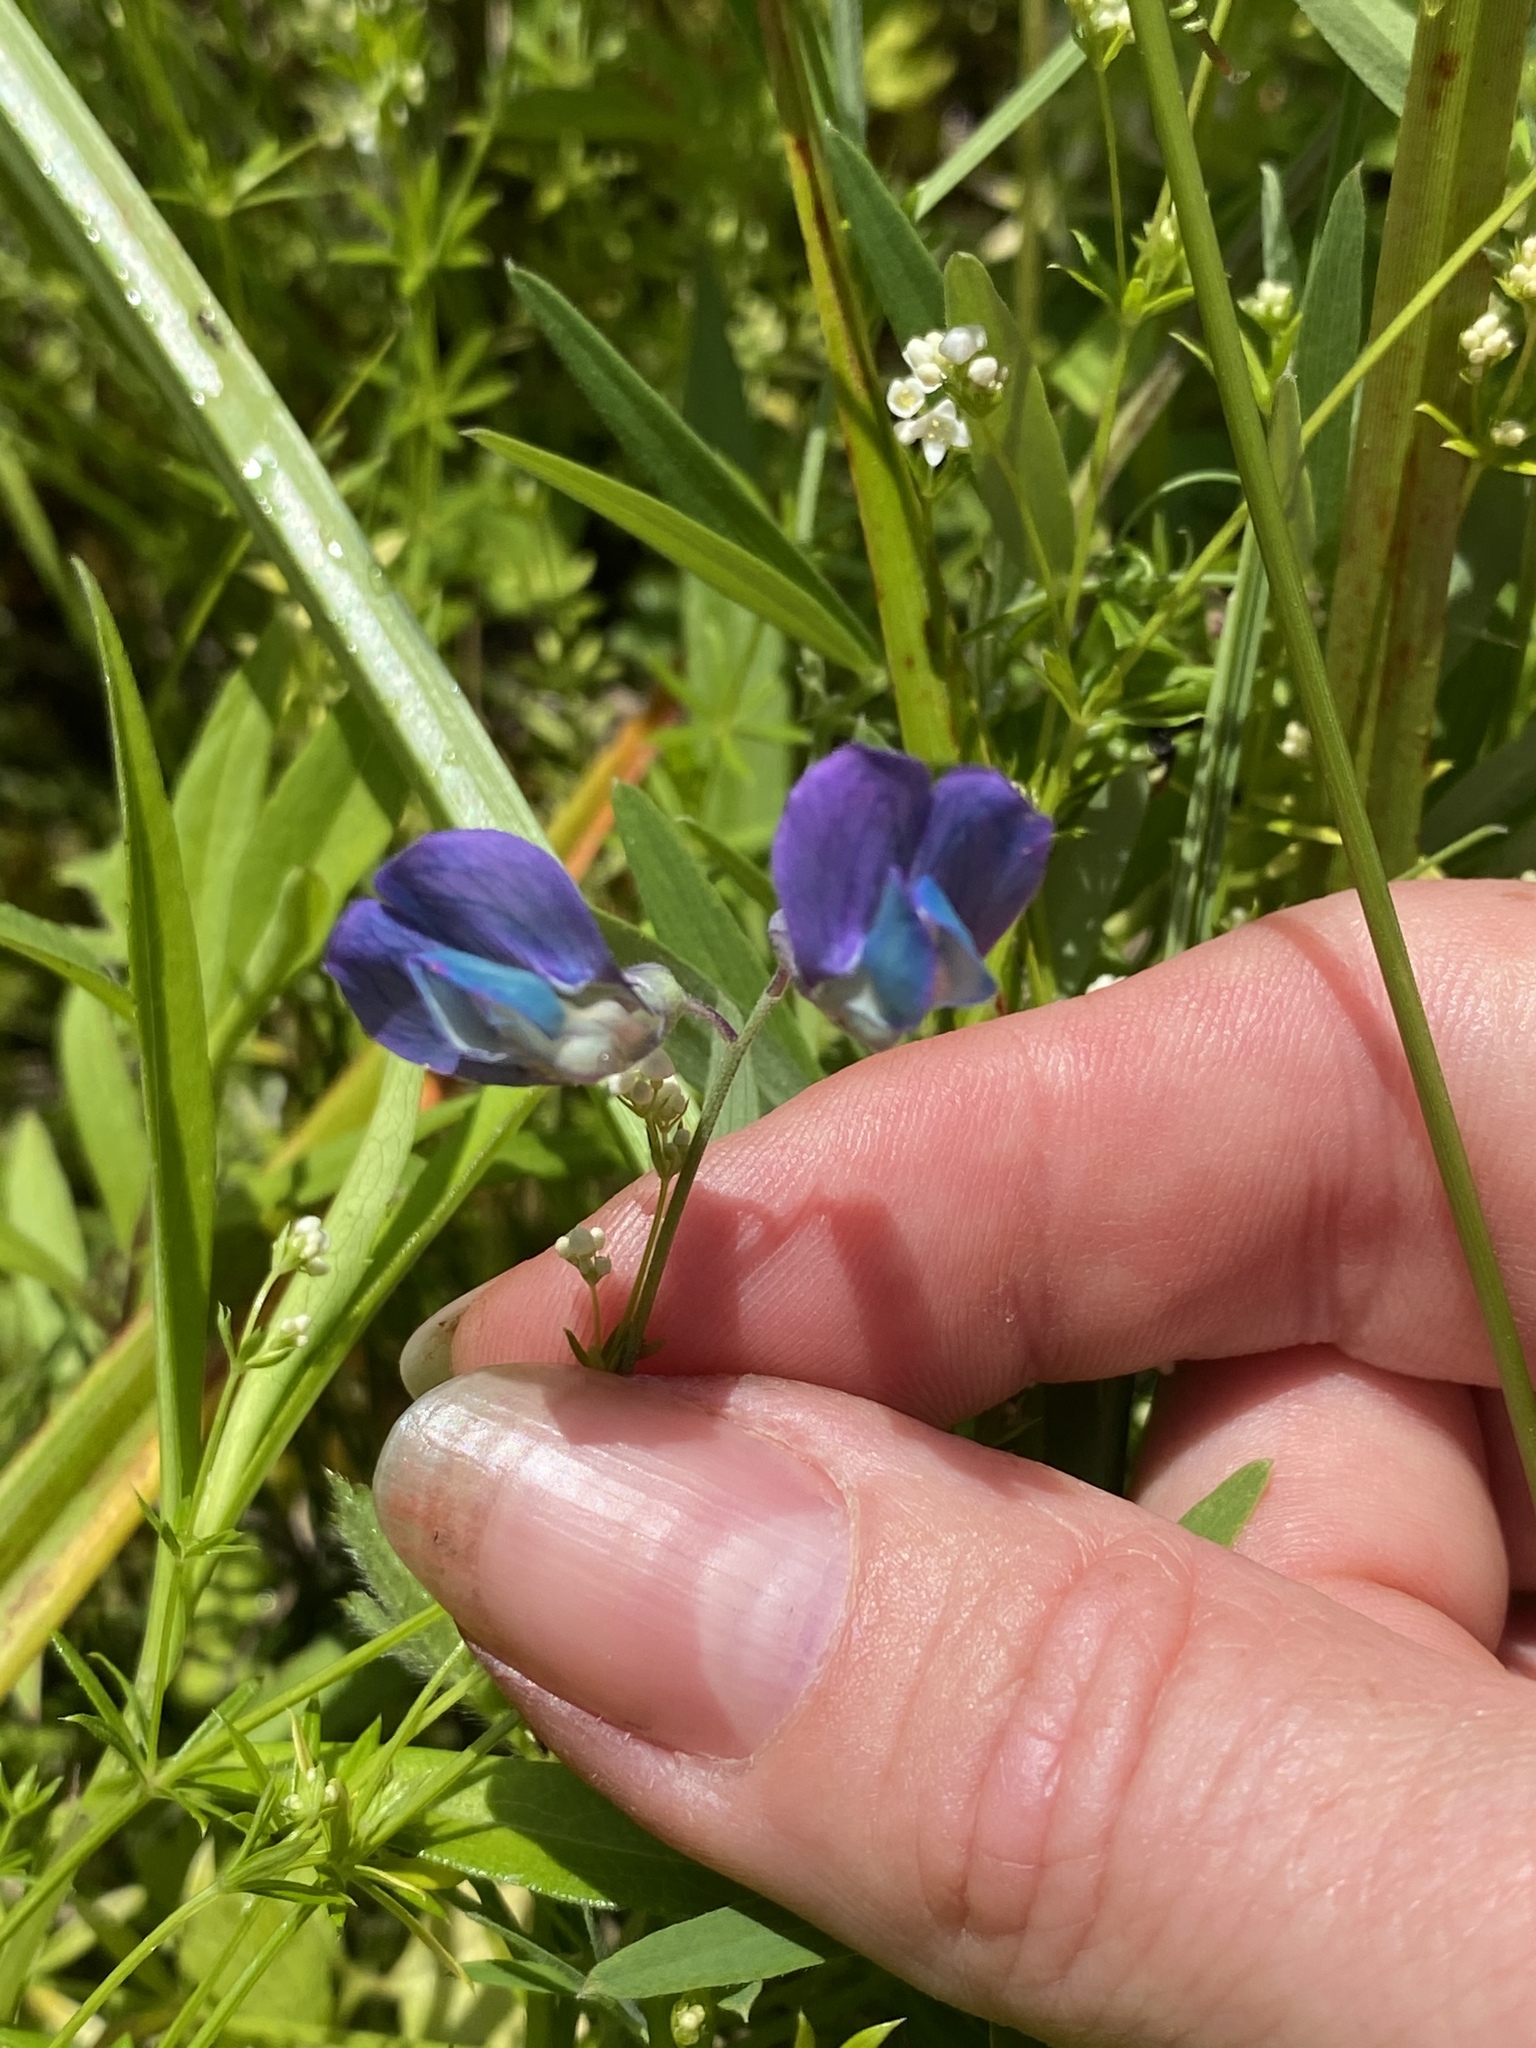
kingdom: Plantae
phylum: Tracheophyta
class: Magnoliopsida
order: Fabales
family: Fabaceae
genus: Lathyrus
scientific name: Lathyrus palustris
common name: Marsh pea
